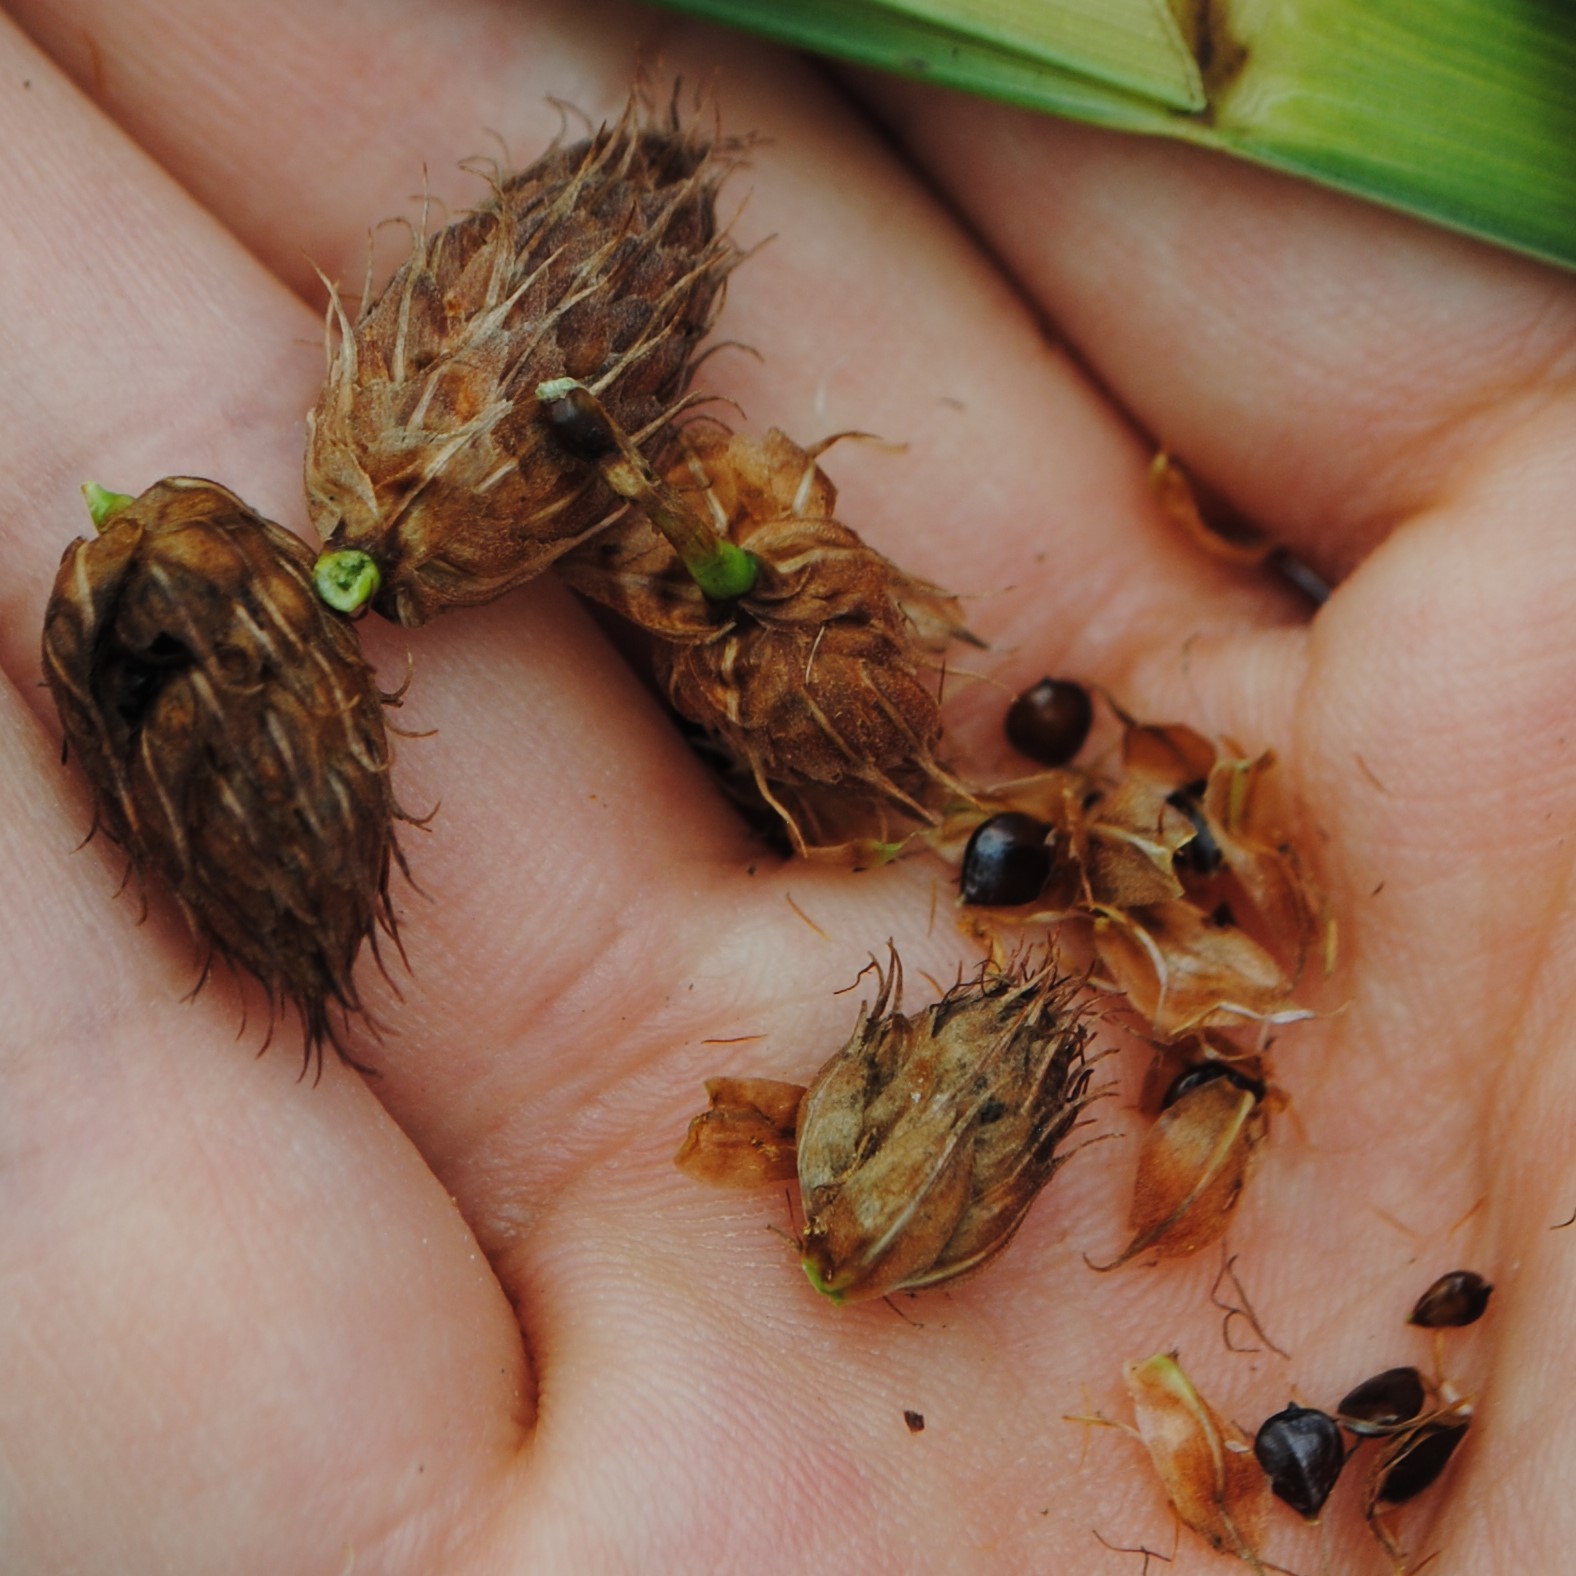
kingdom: Plantae
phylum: Tracheophyta
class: Liliopsida
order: Poales
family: Cyperaceae
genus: Bolboschoenus
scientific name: Bolboschoenus robustus
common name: Seacoast bulrush
